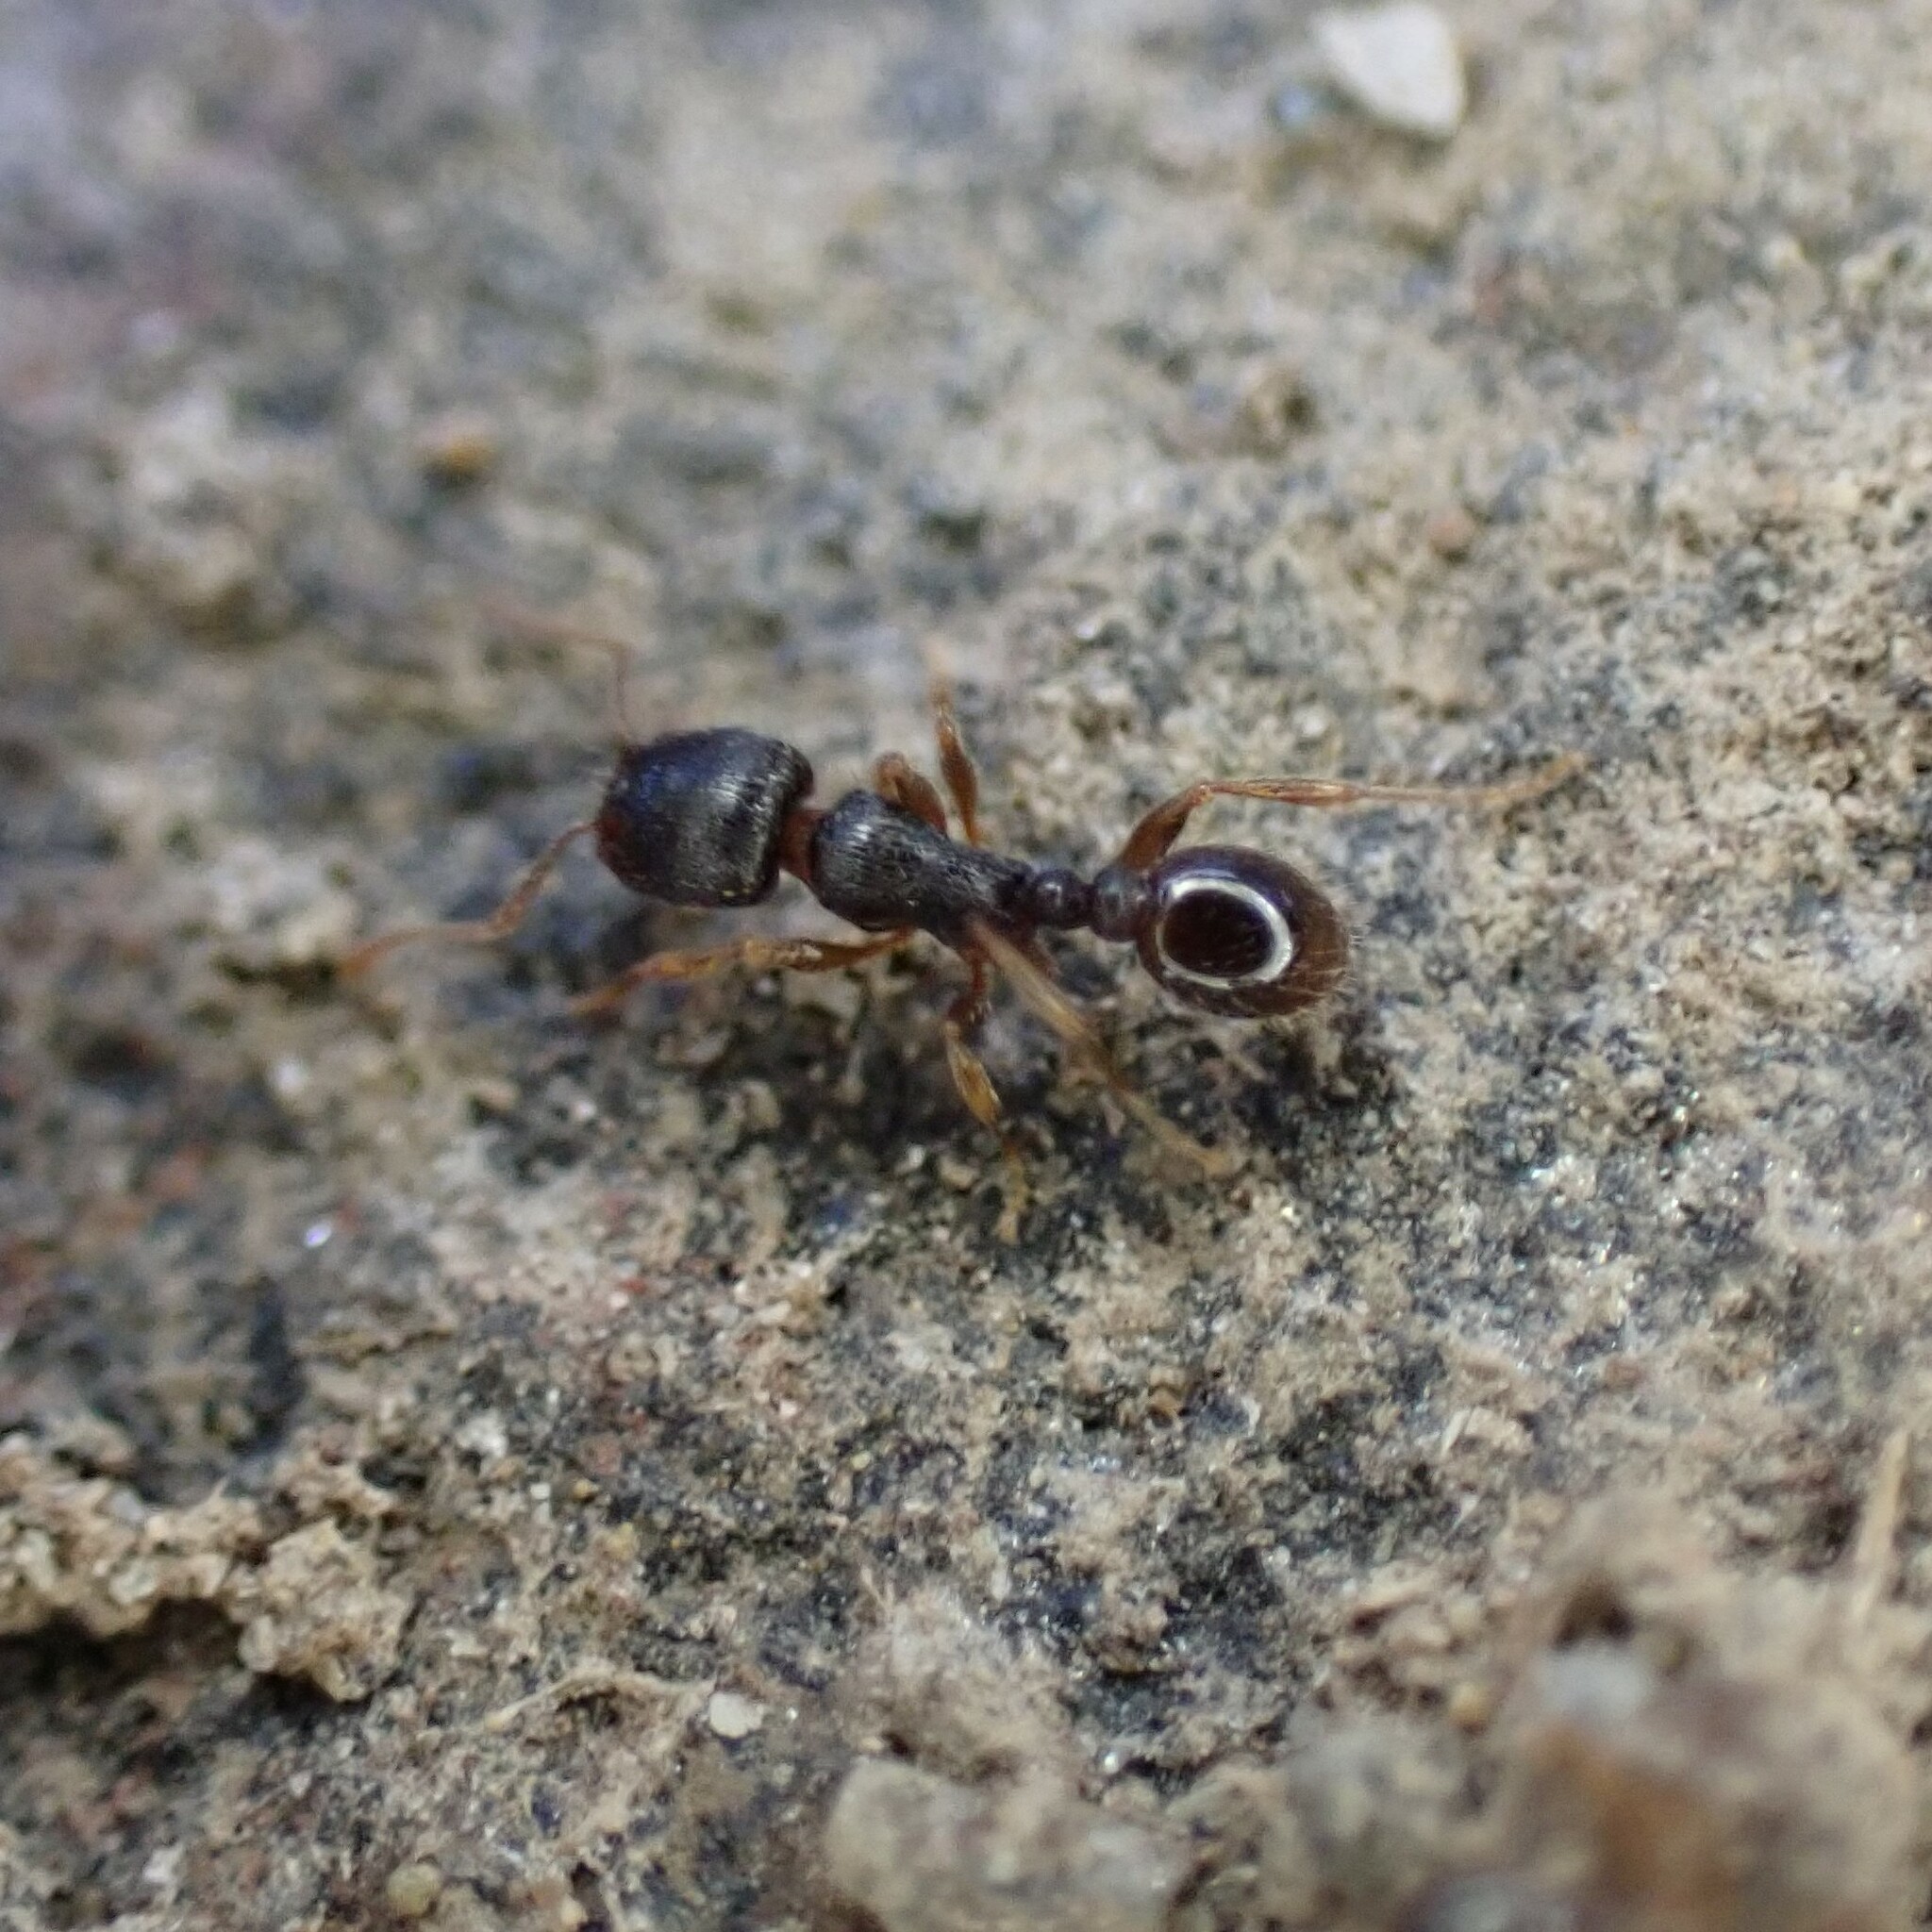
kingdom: Animalia
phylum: Arthropoda
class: Insecta
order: Hymenoptera
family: Formicidae
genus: Tetramorium
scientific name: Tetramorium immigrans
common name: Pavement ant
